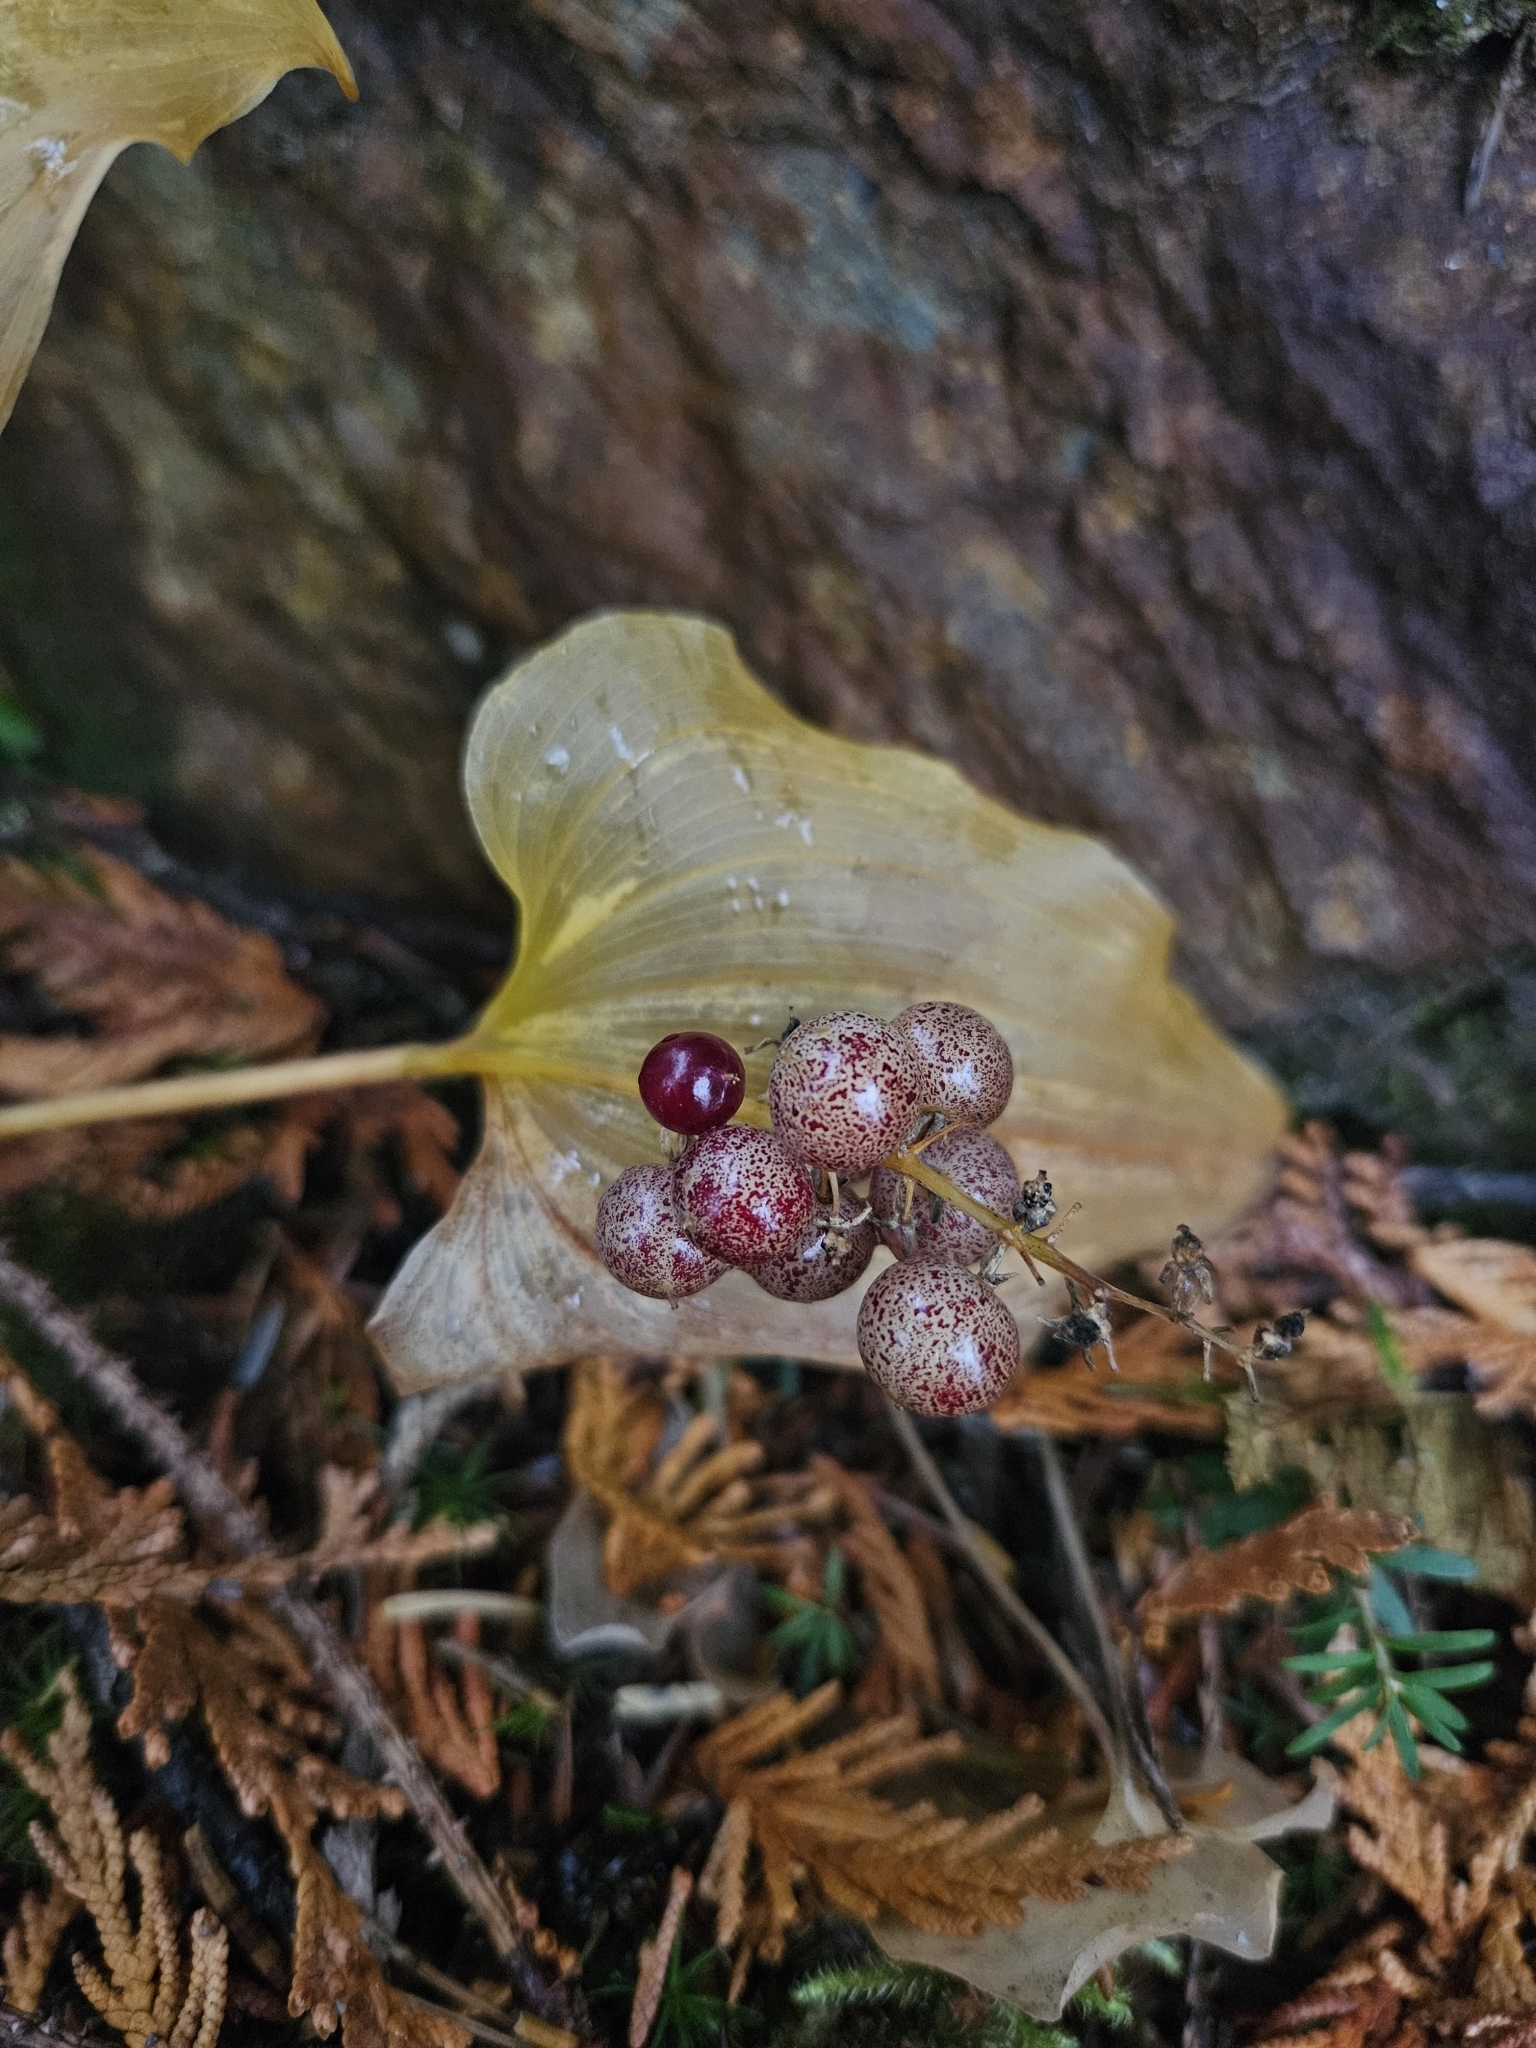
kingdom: Plantae
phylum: Tracheophyta
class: Liliopsida
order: Asparagales
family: Asparagaceae
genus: Maianthemum
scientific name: Maianthemum dilatatum
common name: False lily-of-the-valley
